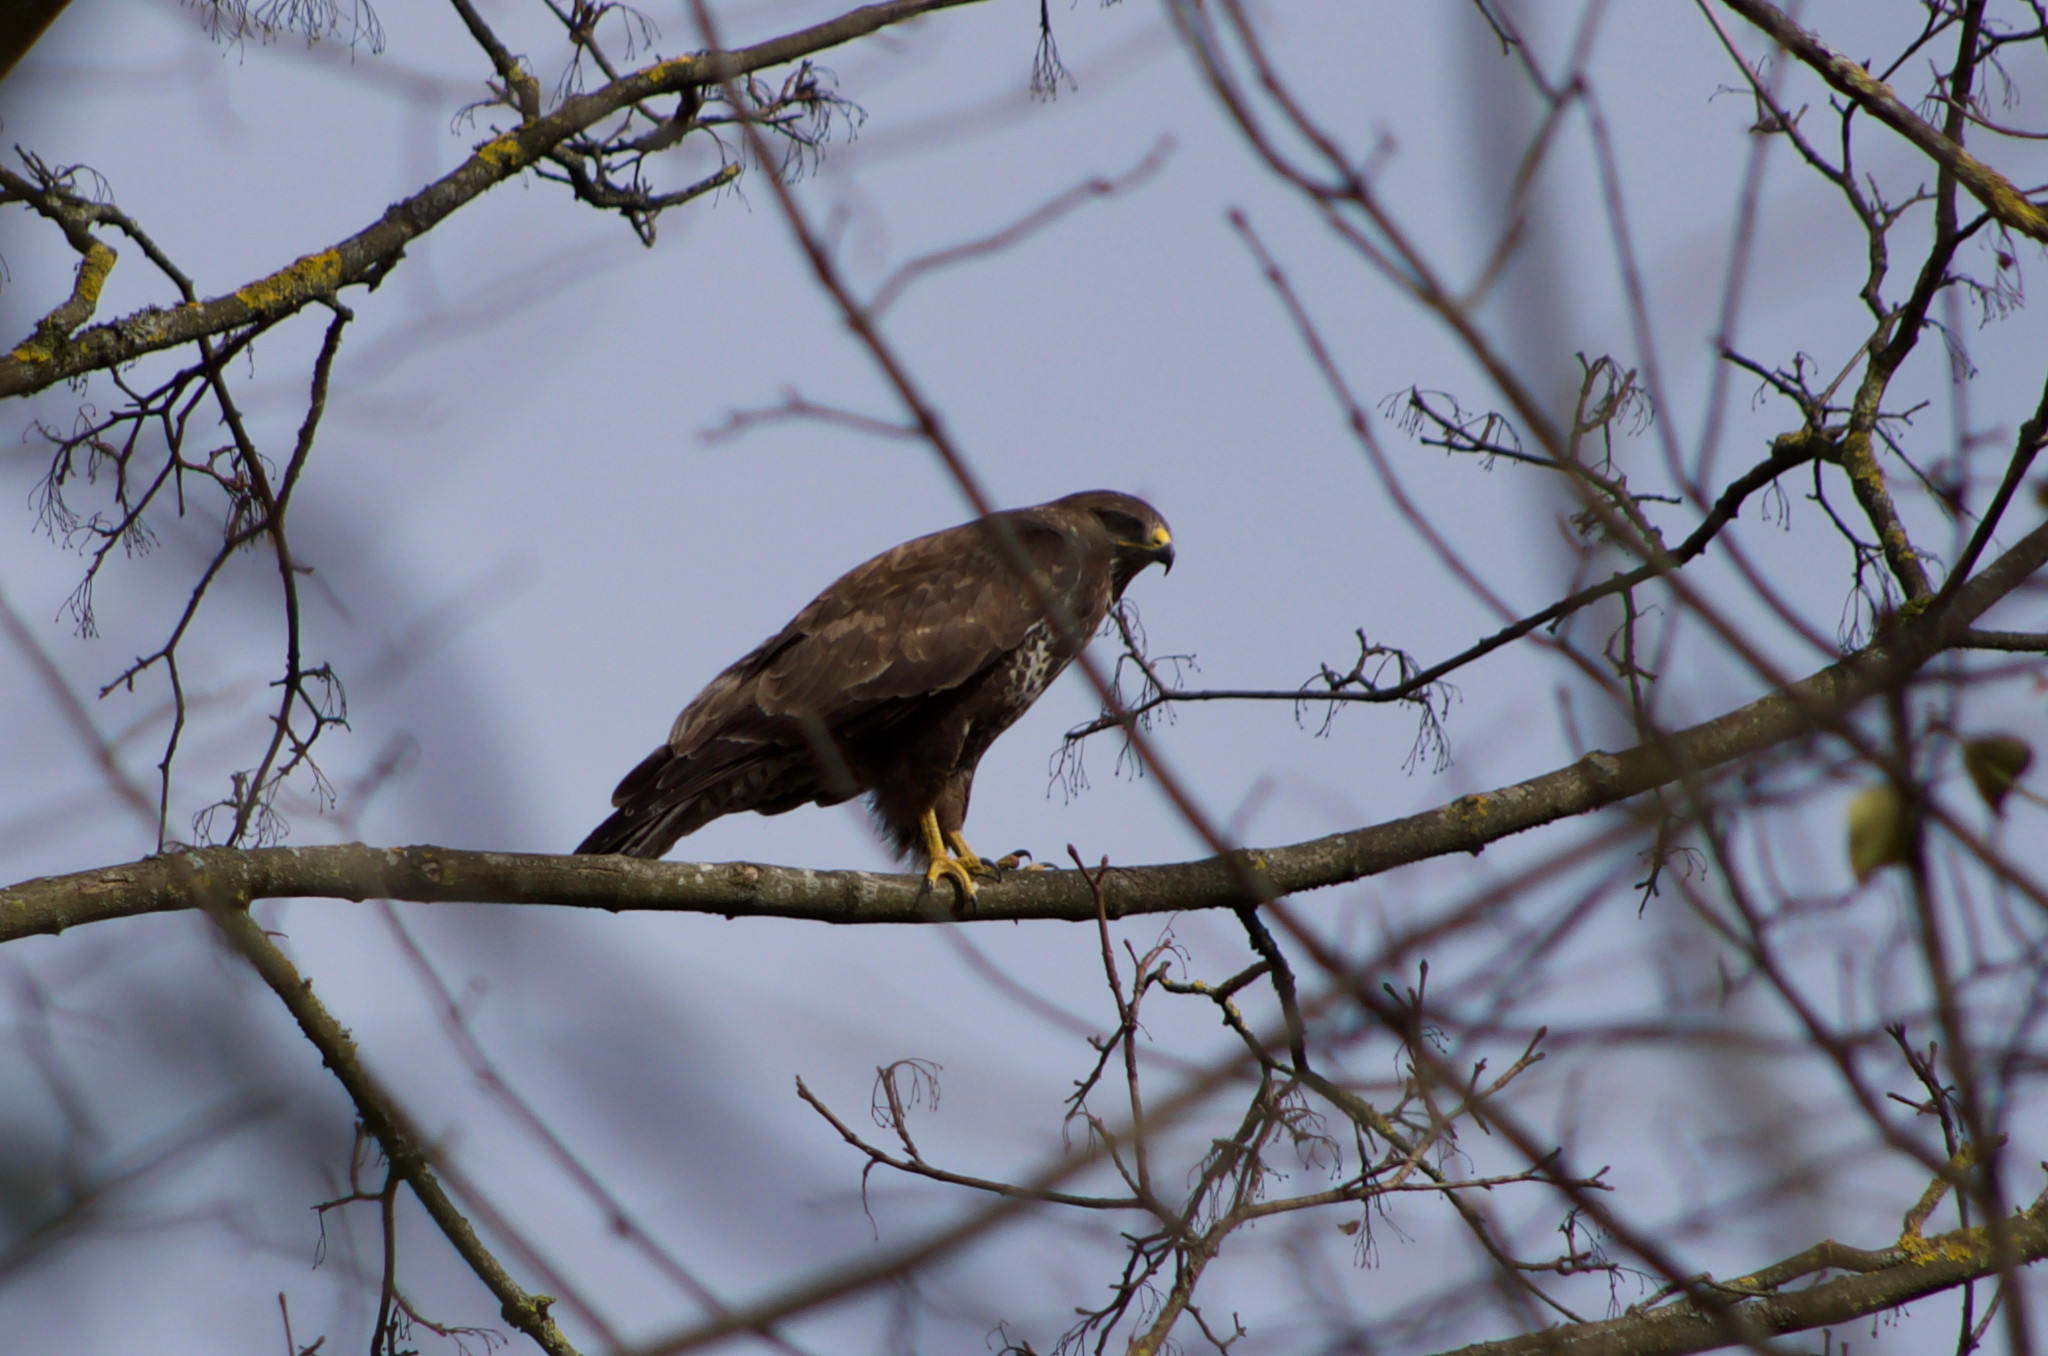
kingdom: Animalia
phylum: Chordata
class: Aves
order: Accipitriformes
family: Accipitridae
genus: Buteo
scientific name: Buteo buteo
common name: Common buzzard
